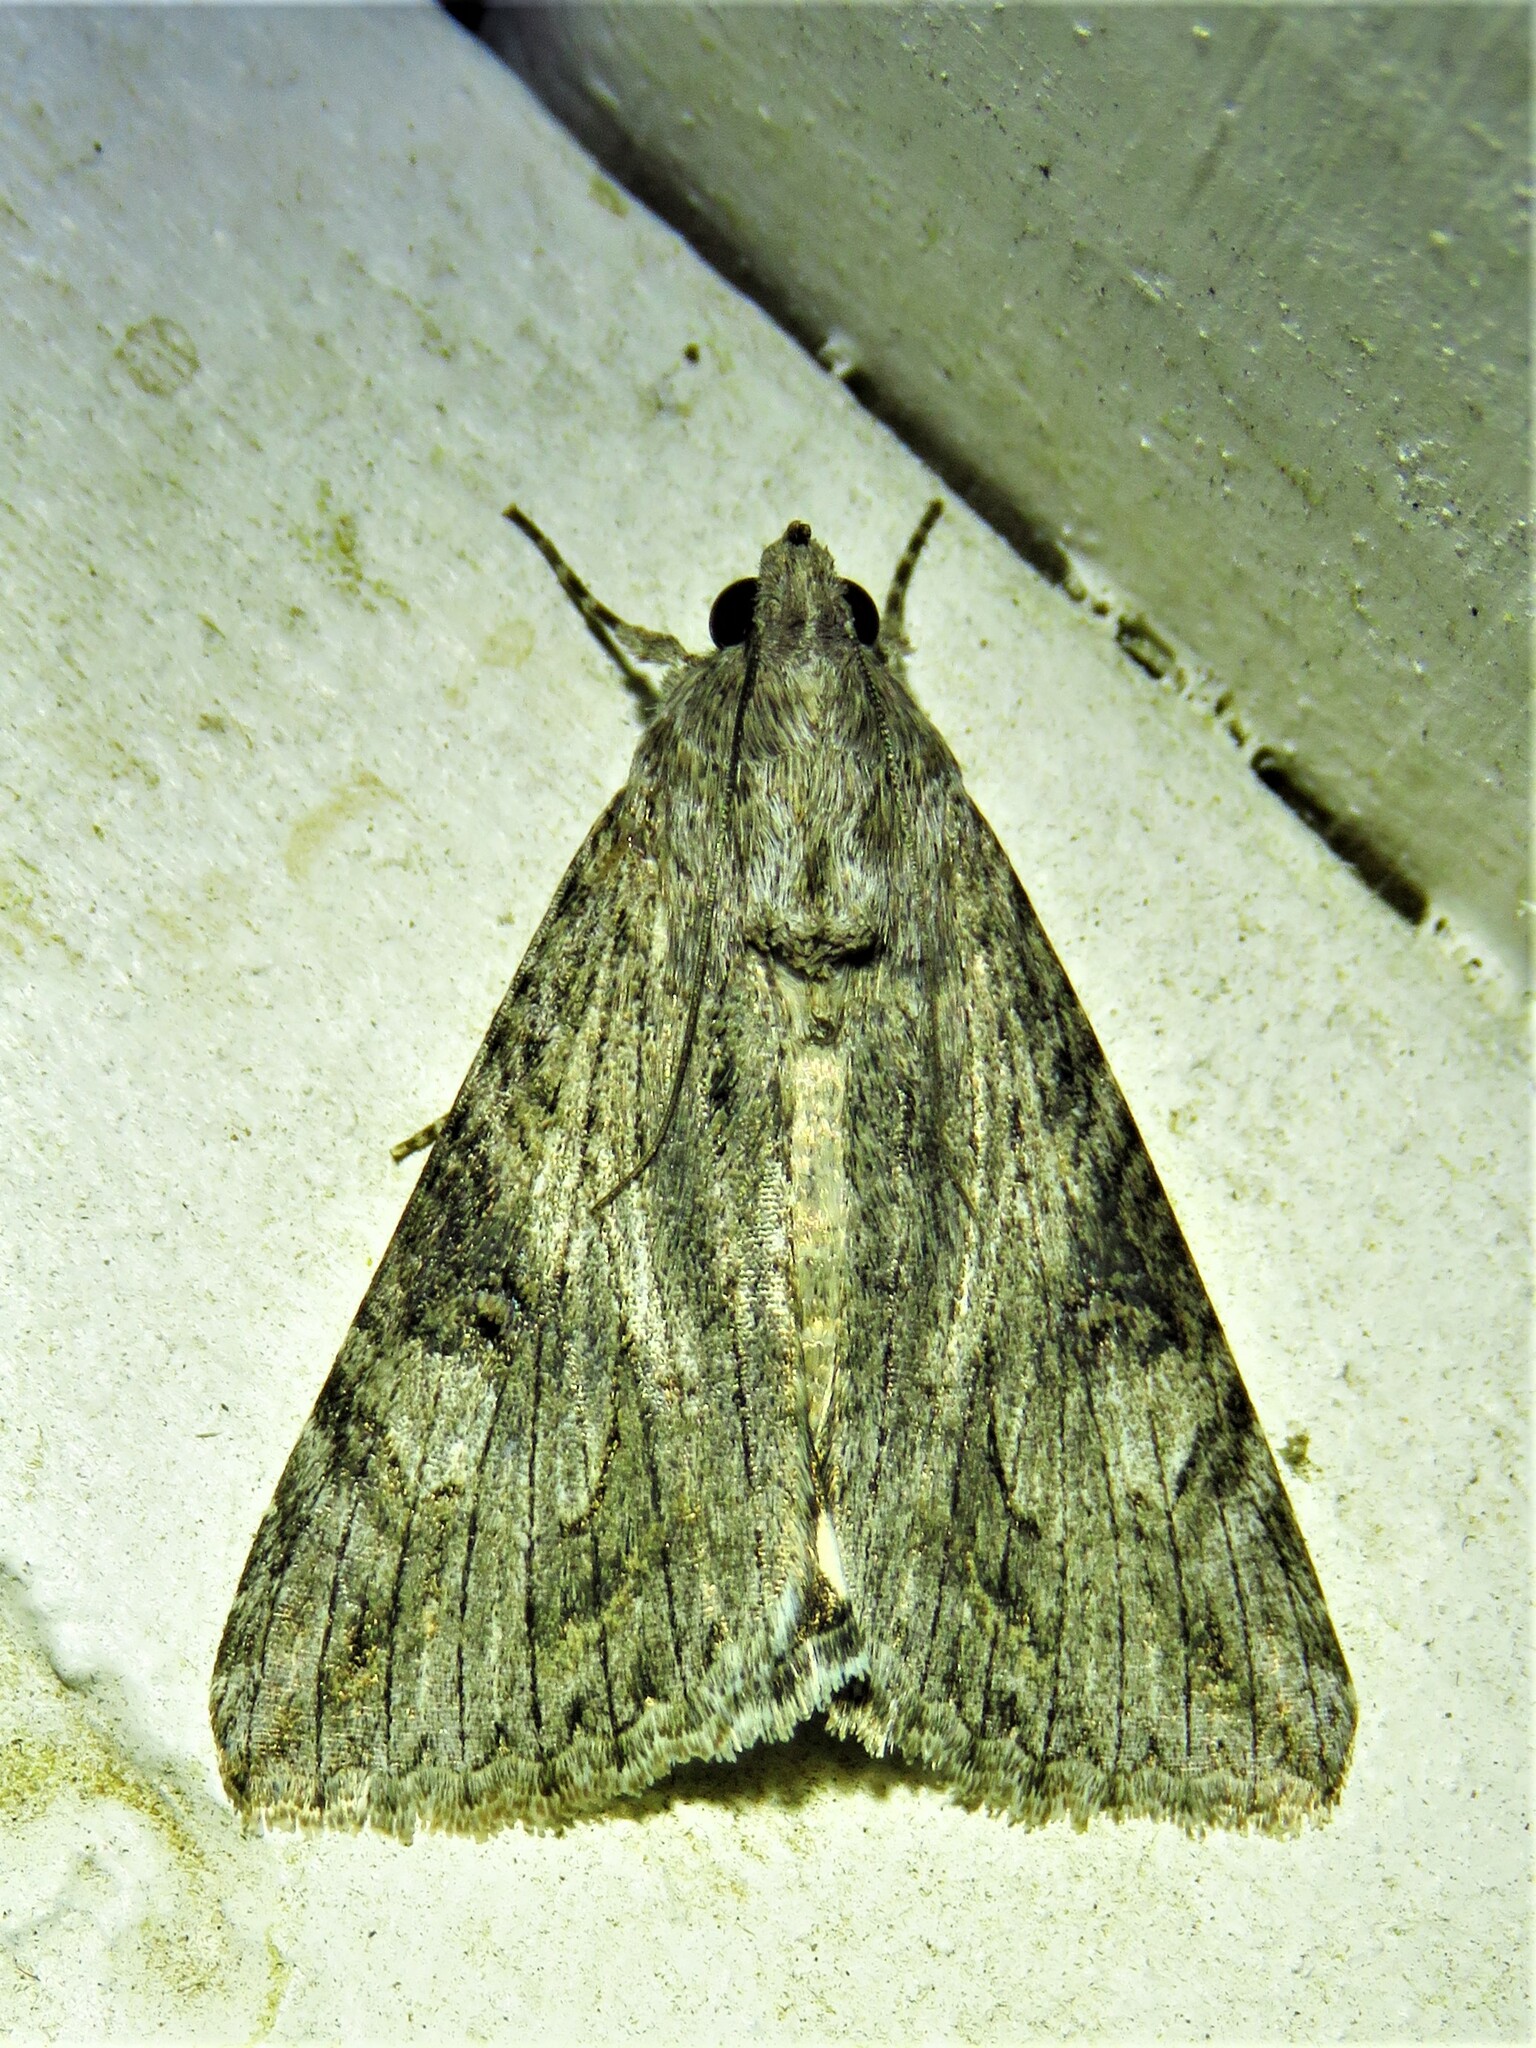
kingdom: Animalia
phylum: Arthropoda
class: Insecta
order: Lepidoptera
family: Erebidae
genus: Melipotis
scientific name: Melipotis jucunda
